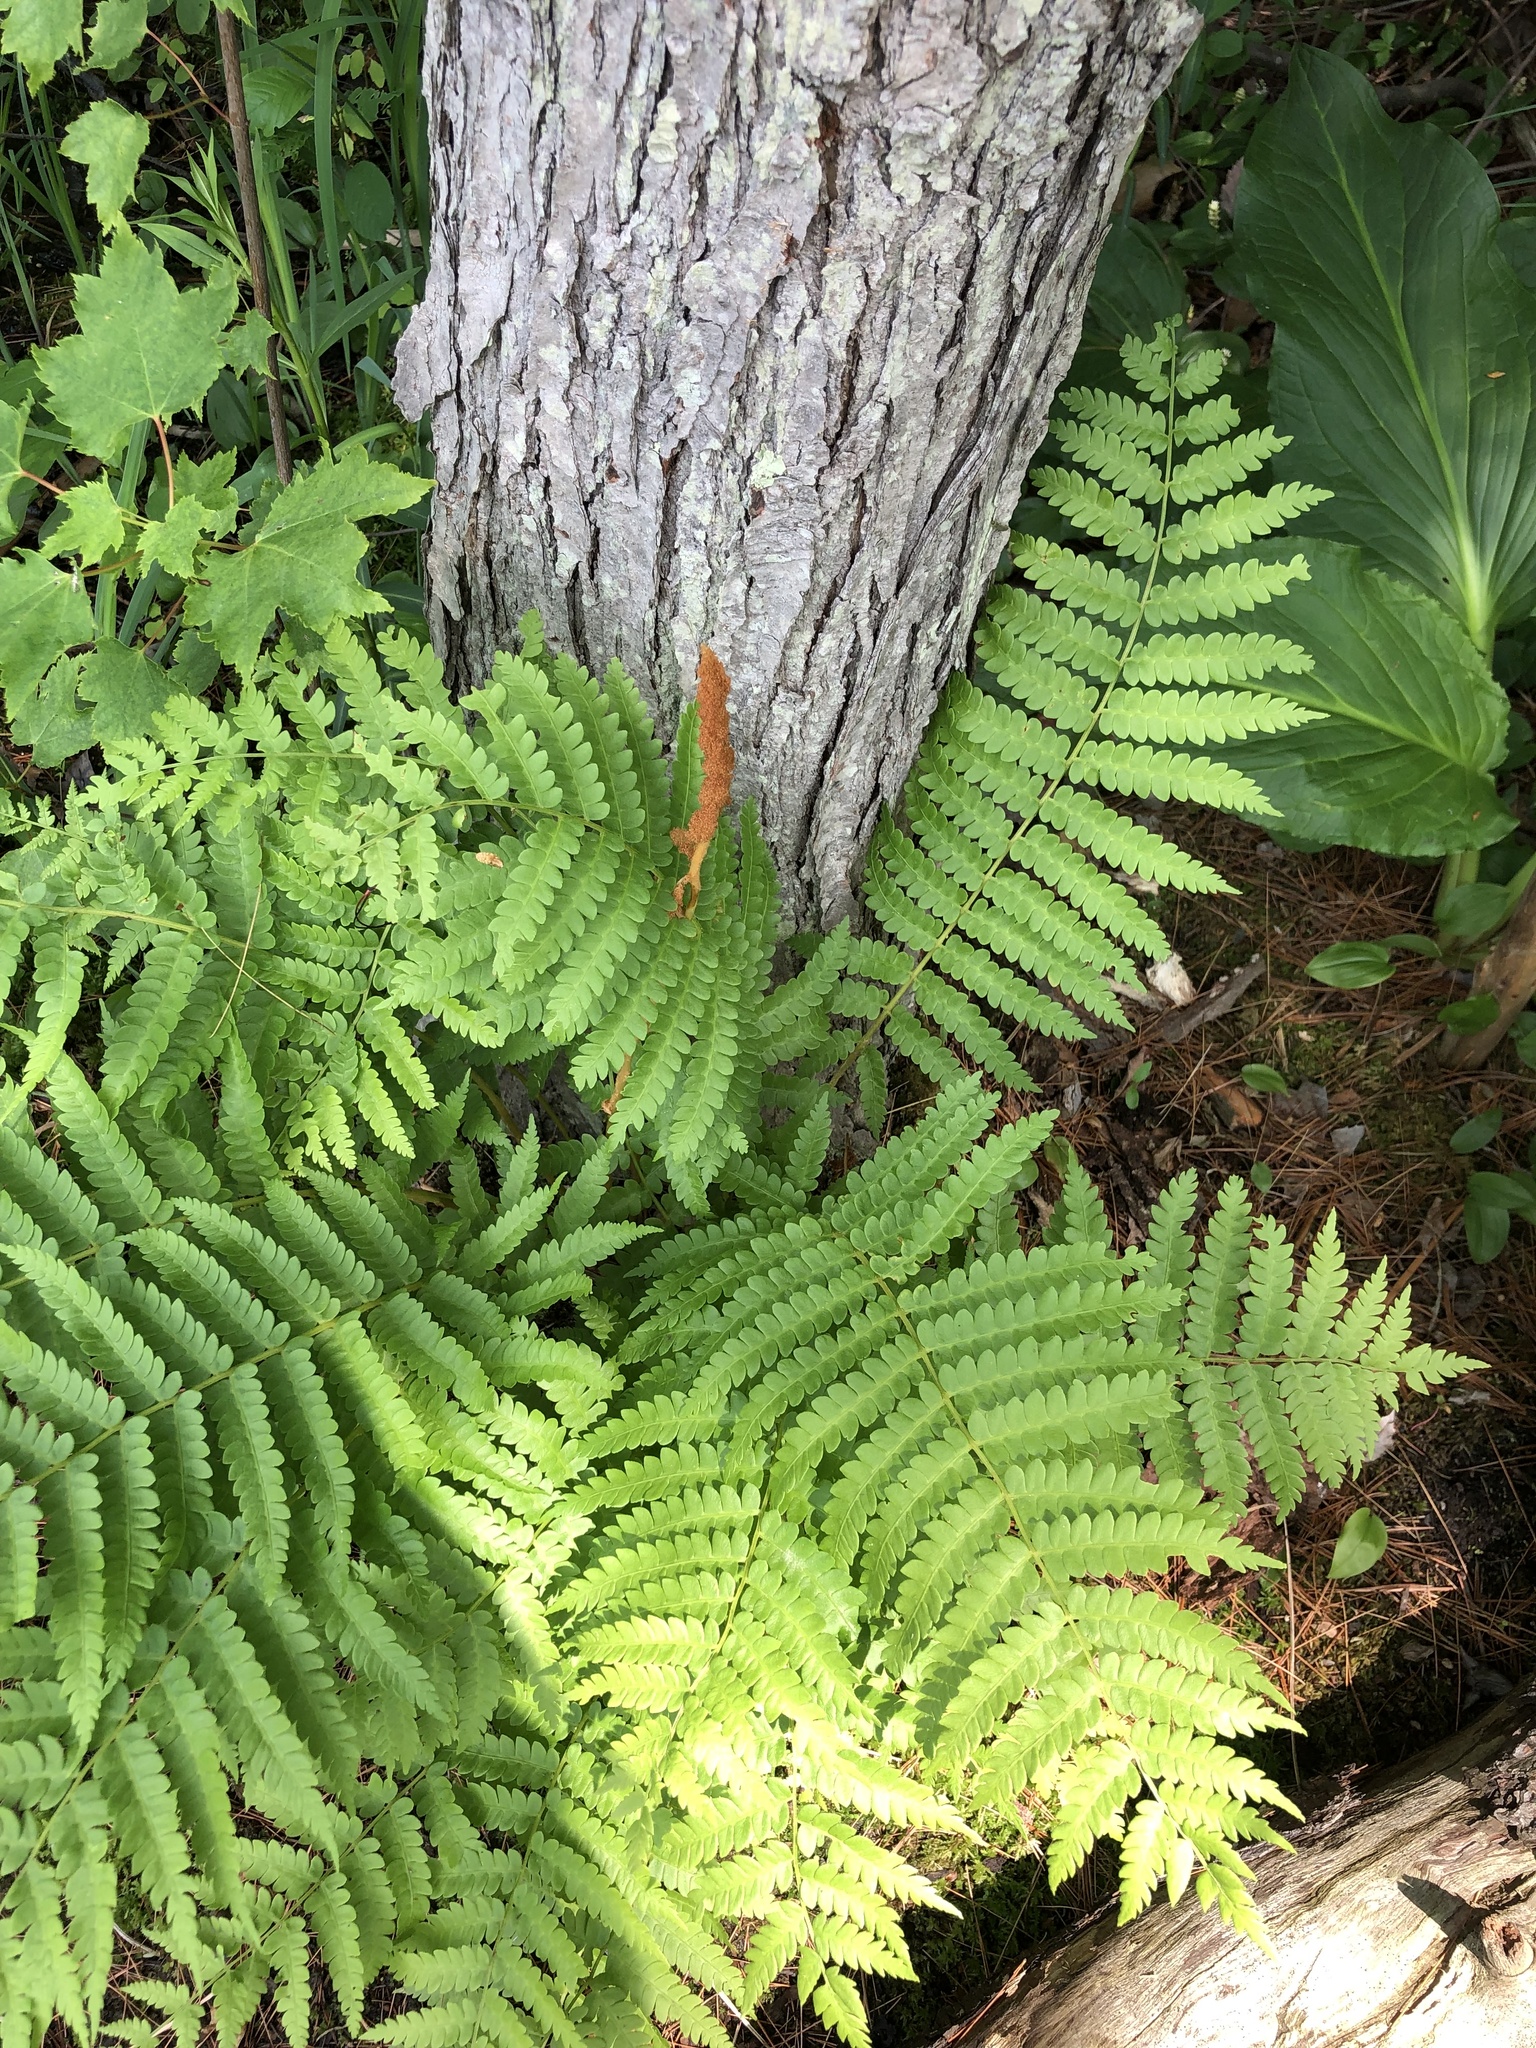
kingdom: Plantae
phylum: Tracheophyta
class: Polypodiopsida
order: Osmundales
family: Osmundaceae
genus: Osmundastrum
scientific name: Osmundastrum cinnamomeum
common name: Cinnamon fern
